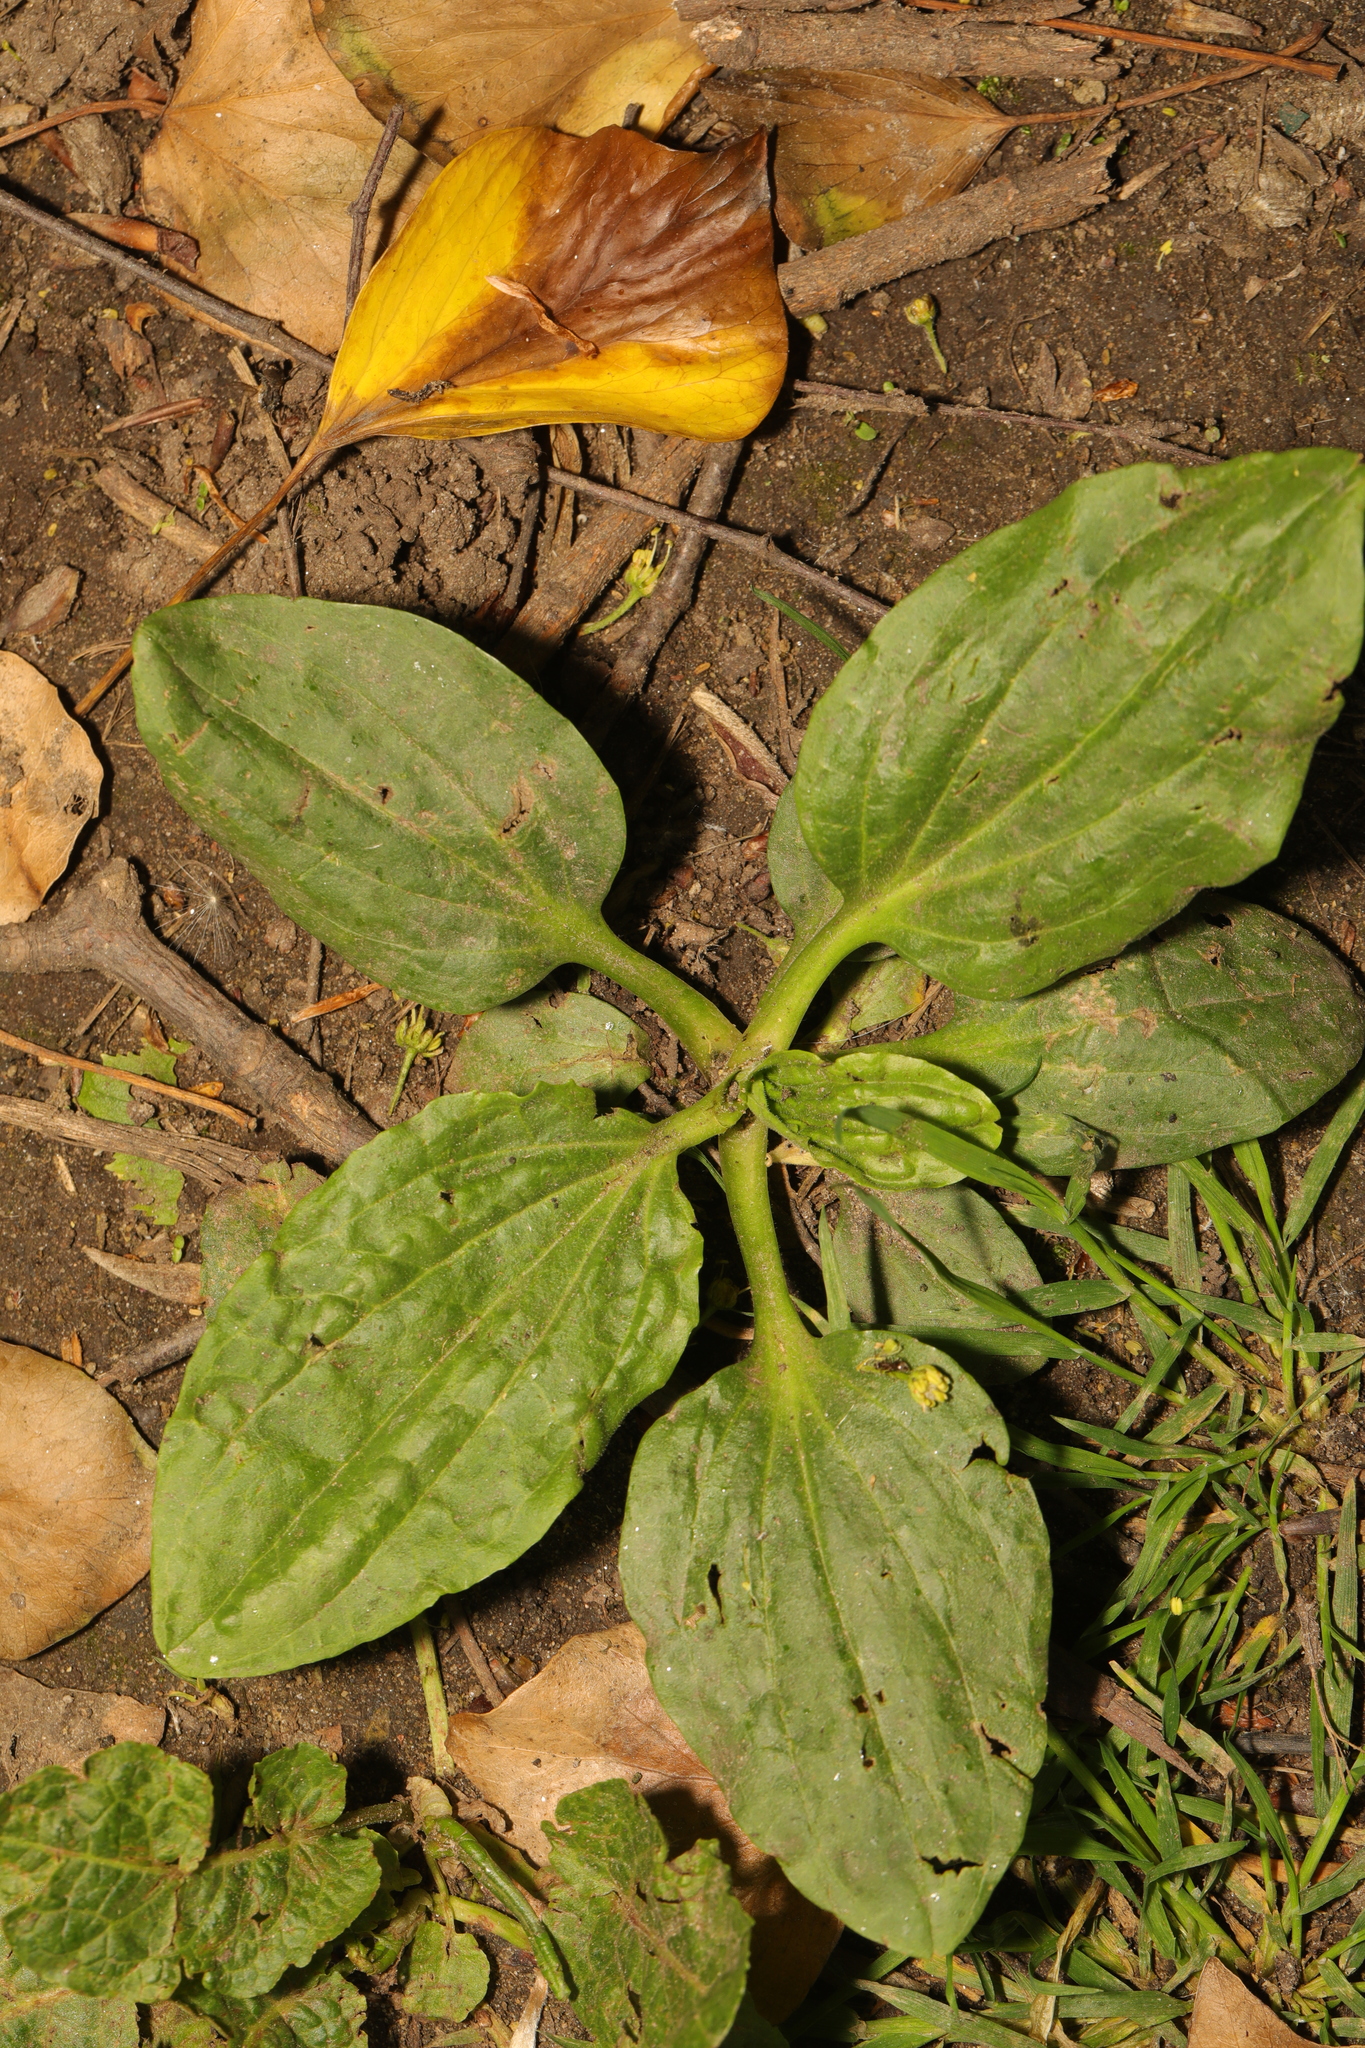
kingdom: Plantae
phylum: Tracheophyta
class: Magnoliopsida
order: Lamiales
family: Plantaginaceae
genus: Plantago
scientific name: Plantago major
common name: Common plantain
